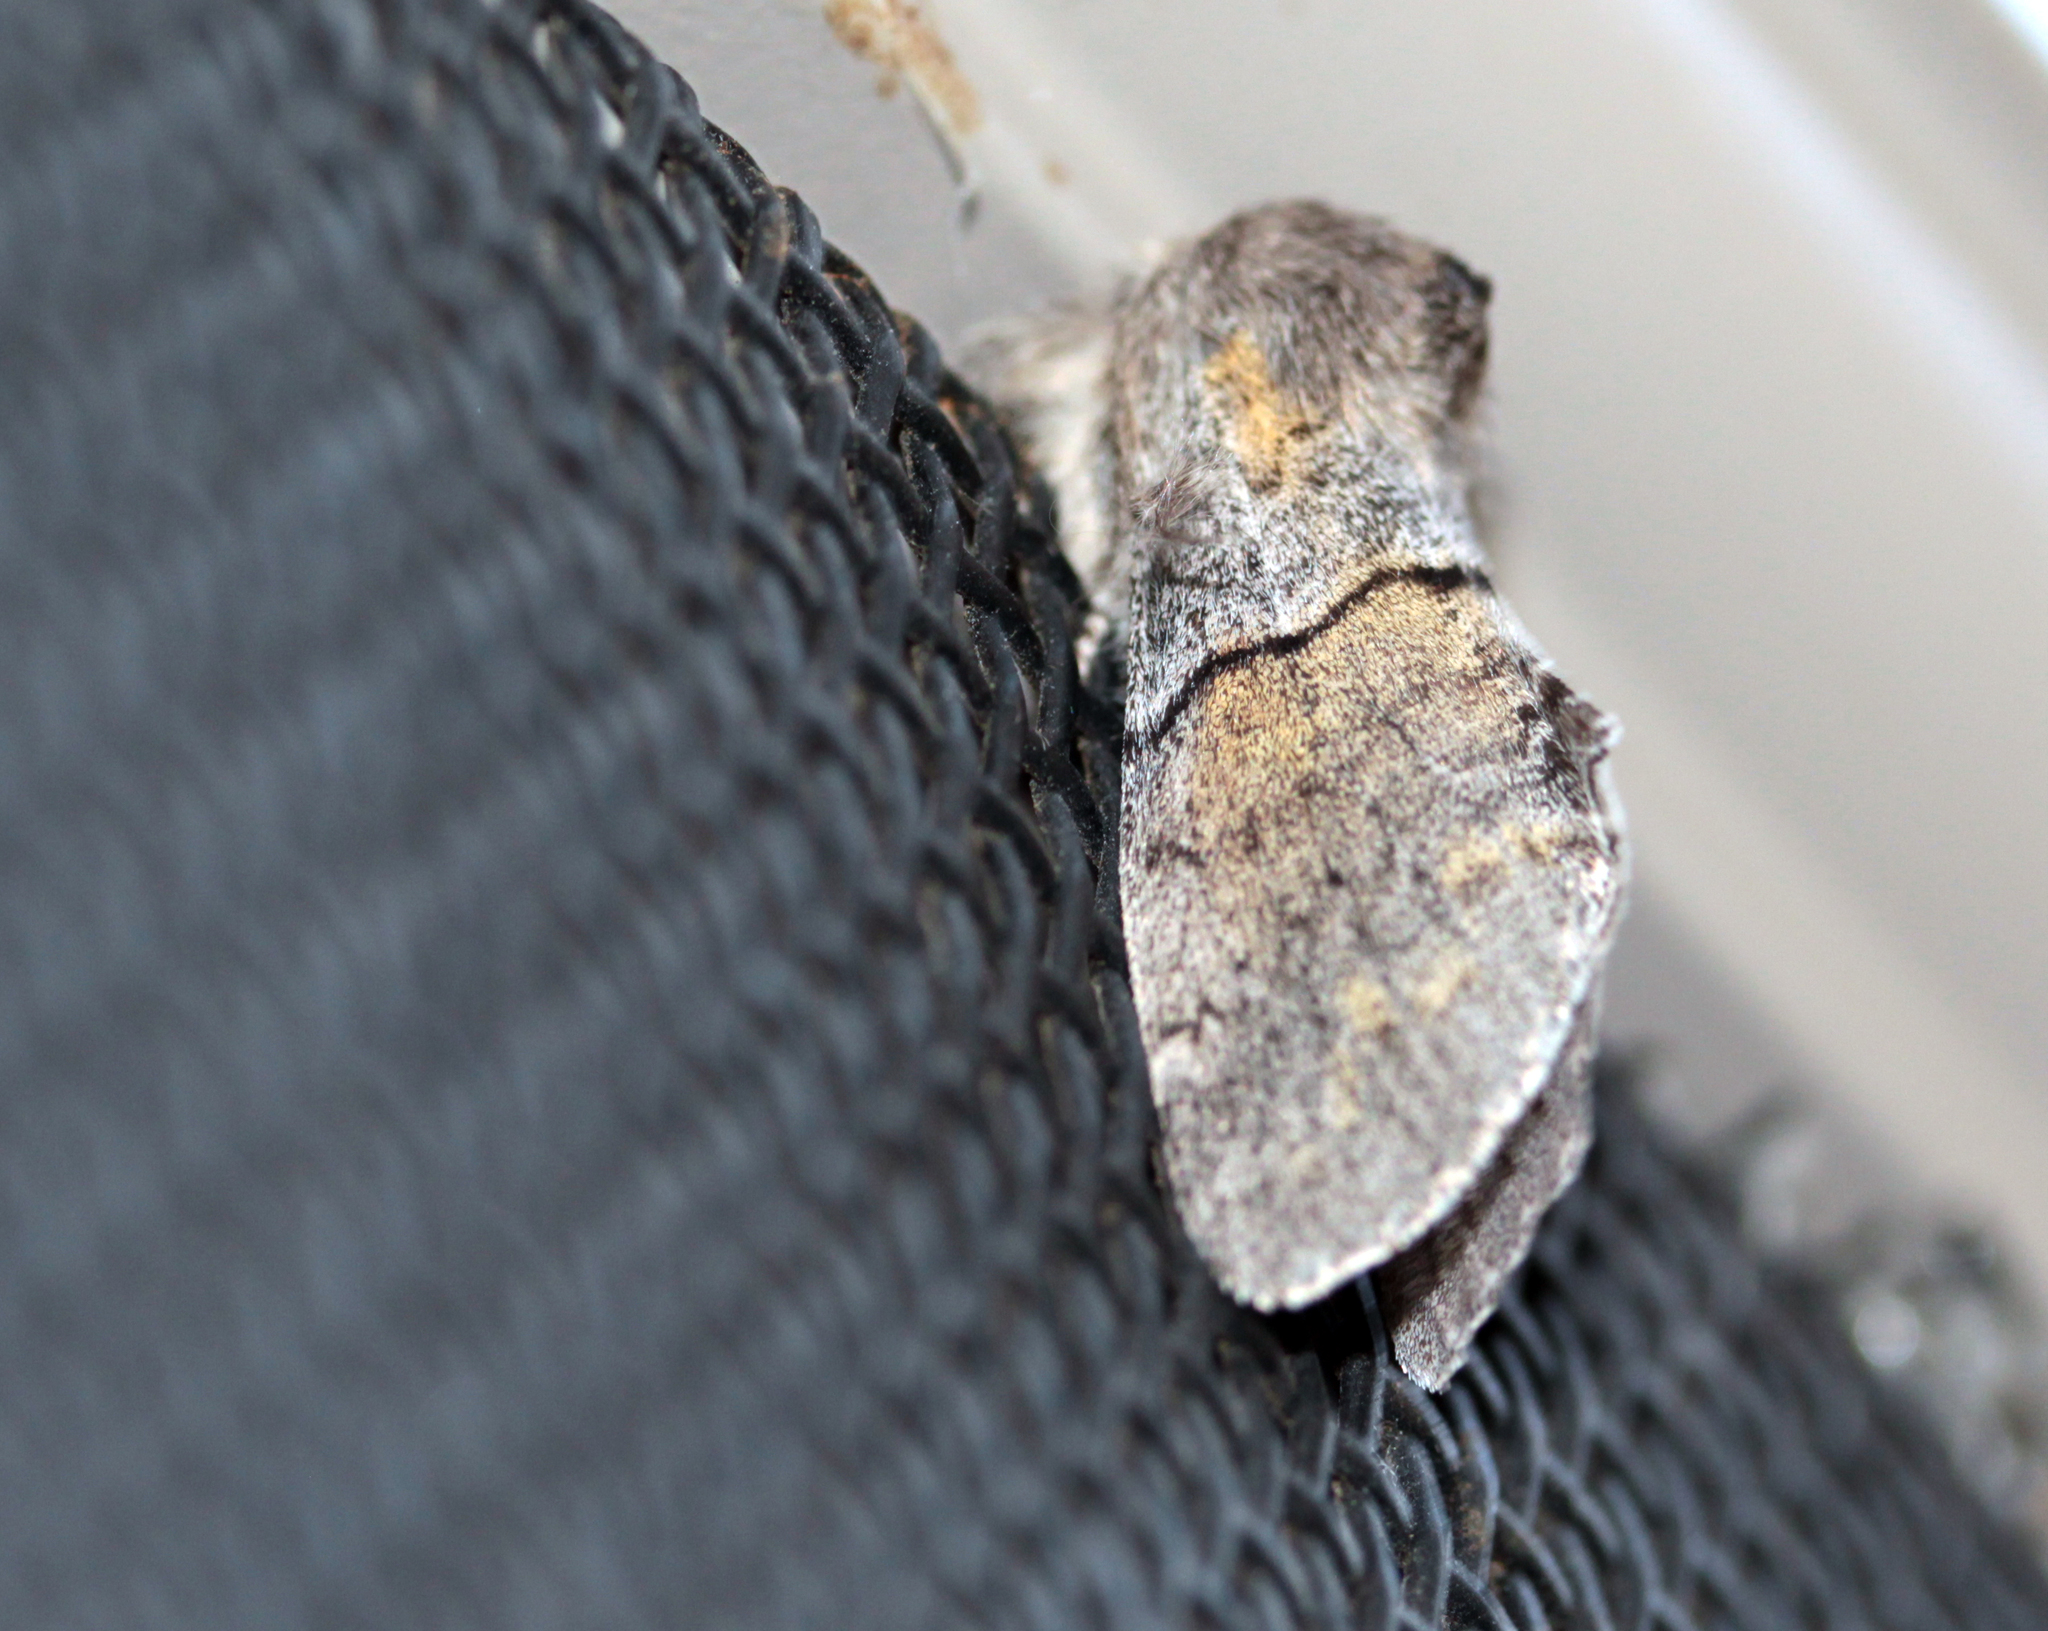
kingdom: Animalia
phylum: Arthropoda
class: Insecta
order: Lepidoptera
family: Notodontidae
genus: Gluphisia
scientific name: Gluphisia lintneri
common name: Lintner's gluphisia moth
